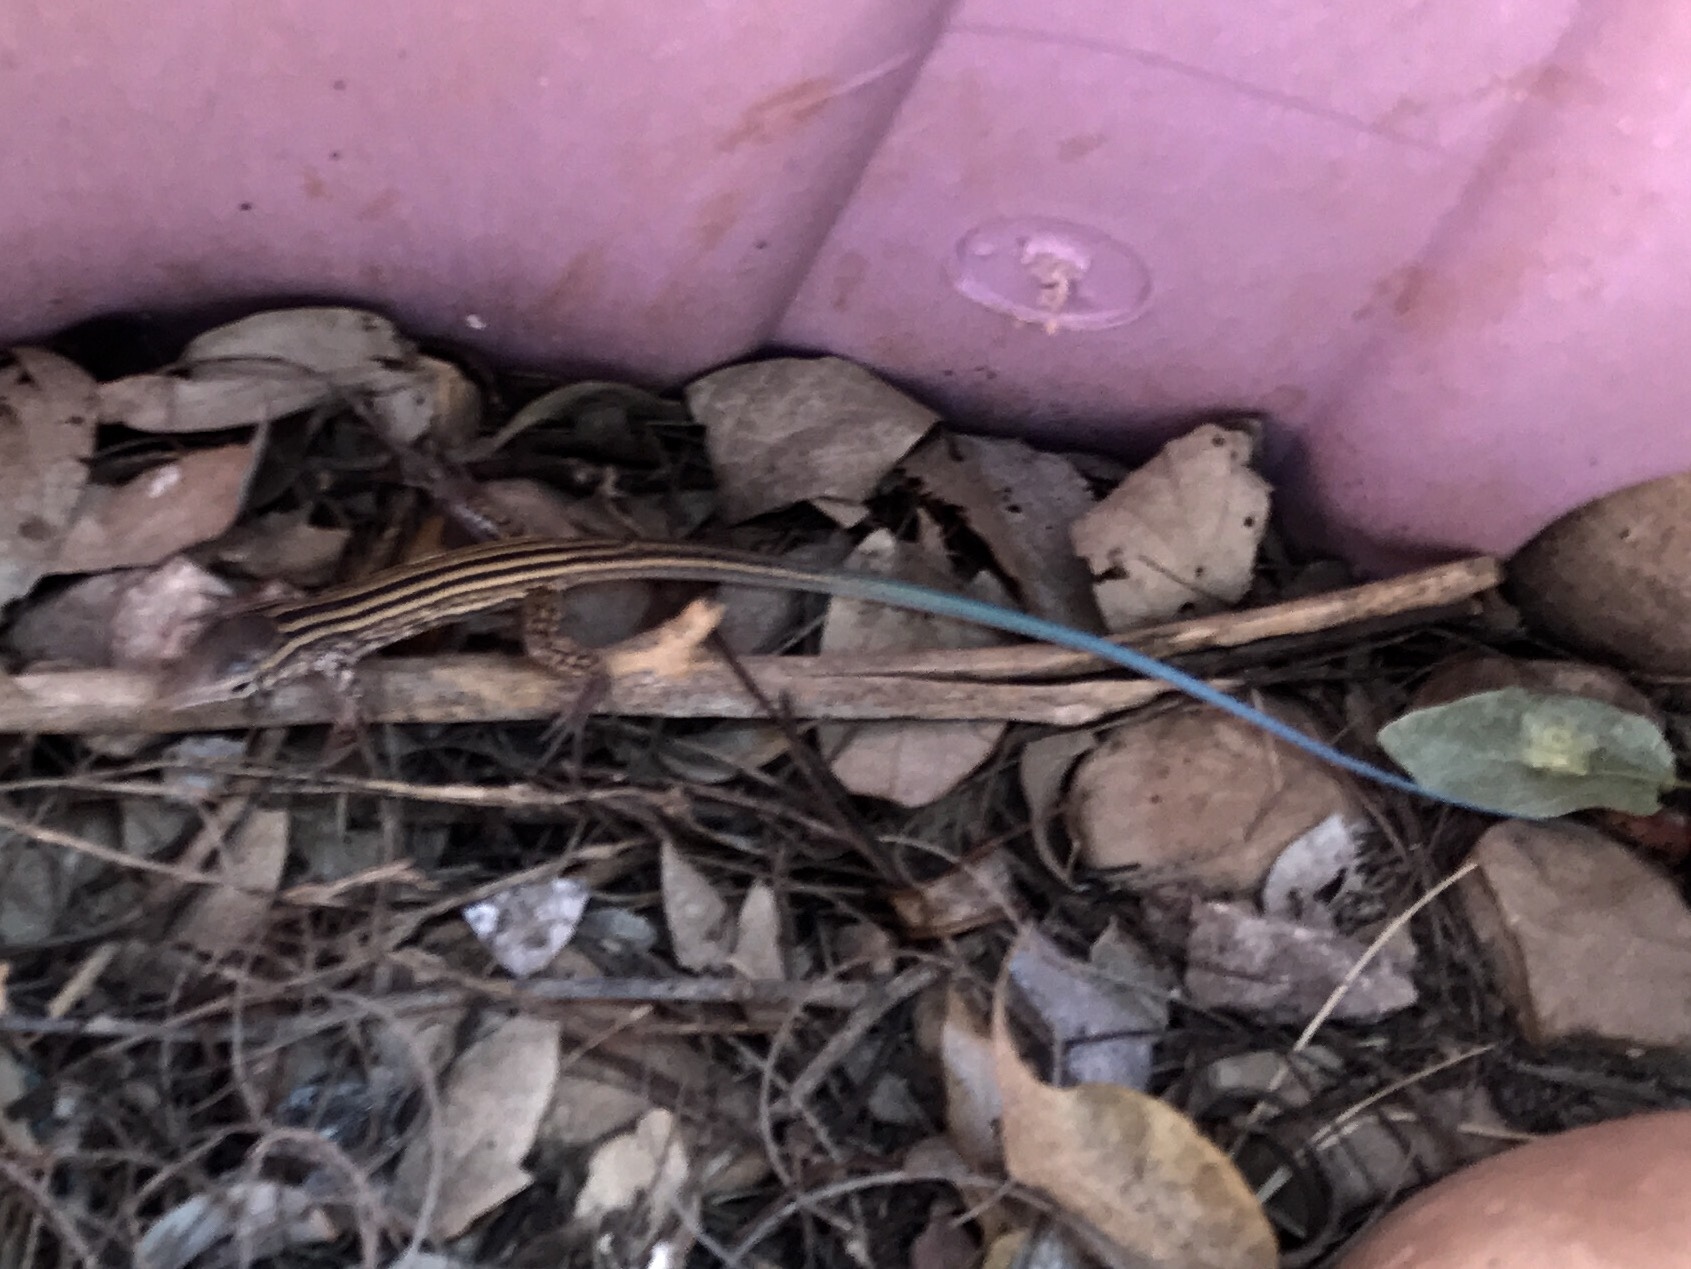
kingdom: Animalia
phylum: Chordata
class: Squamata
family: Teiidae
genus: Aspidoscelis
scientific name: Aspidoscelis tigris
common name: Tiger whiptail
